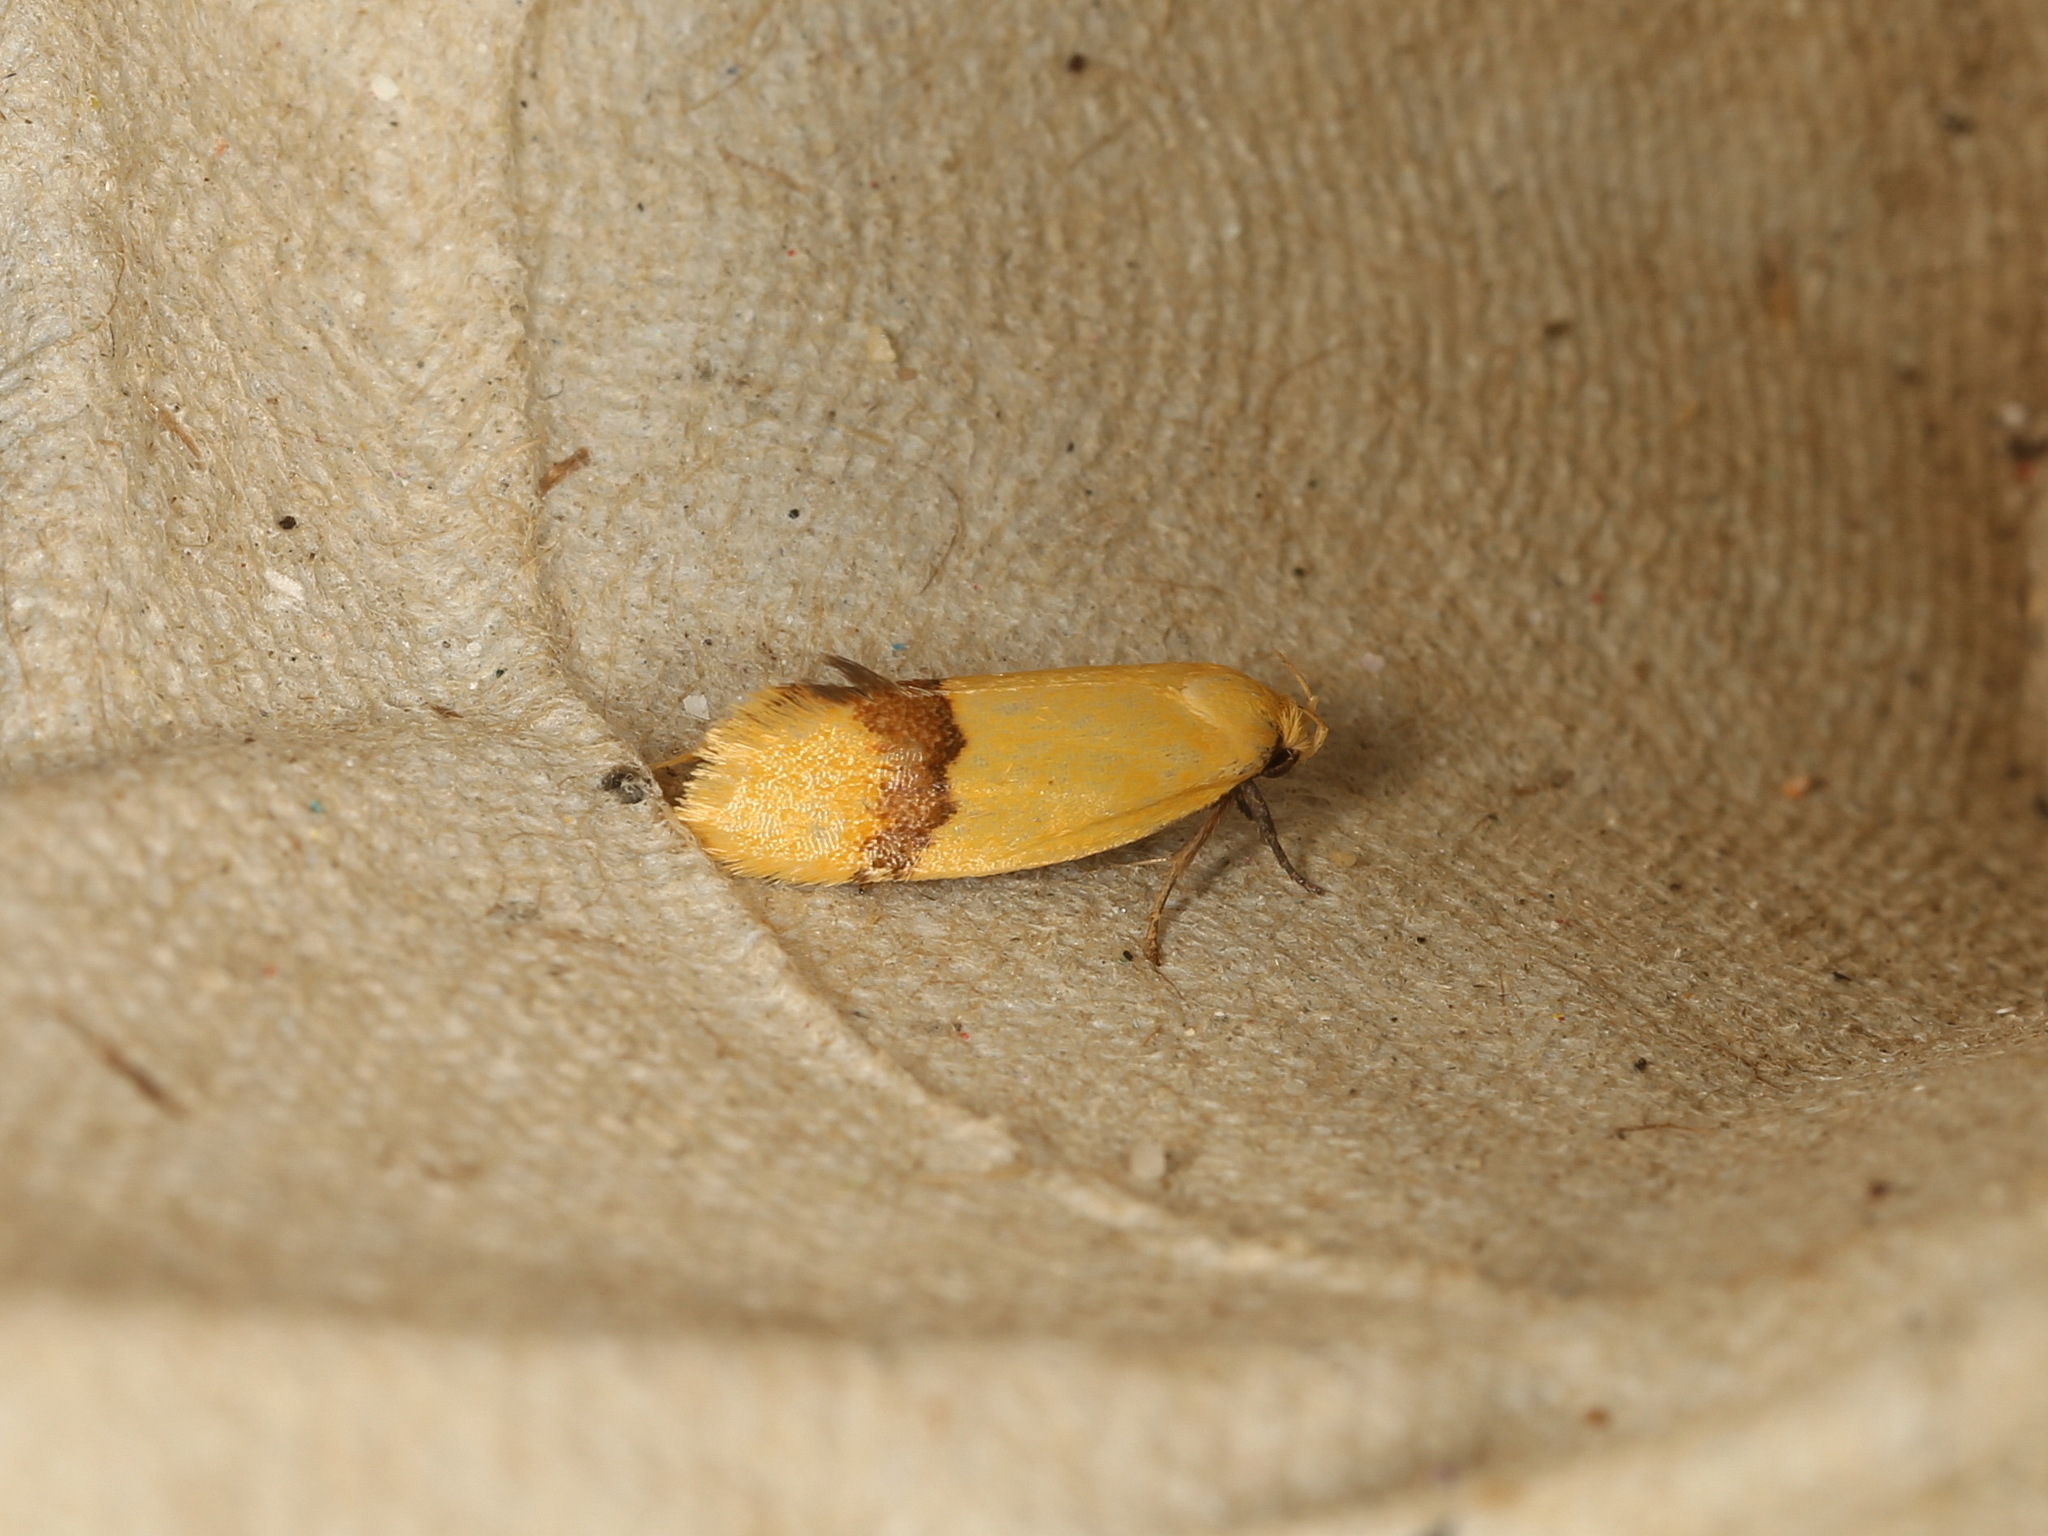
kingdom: Animalia
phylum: Arthropoda
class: Insecta
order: Lepidoptera
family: Oecophoridae
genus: Coesyra
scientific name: Coesyra phaeozona
